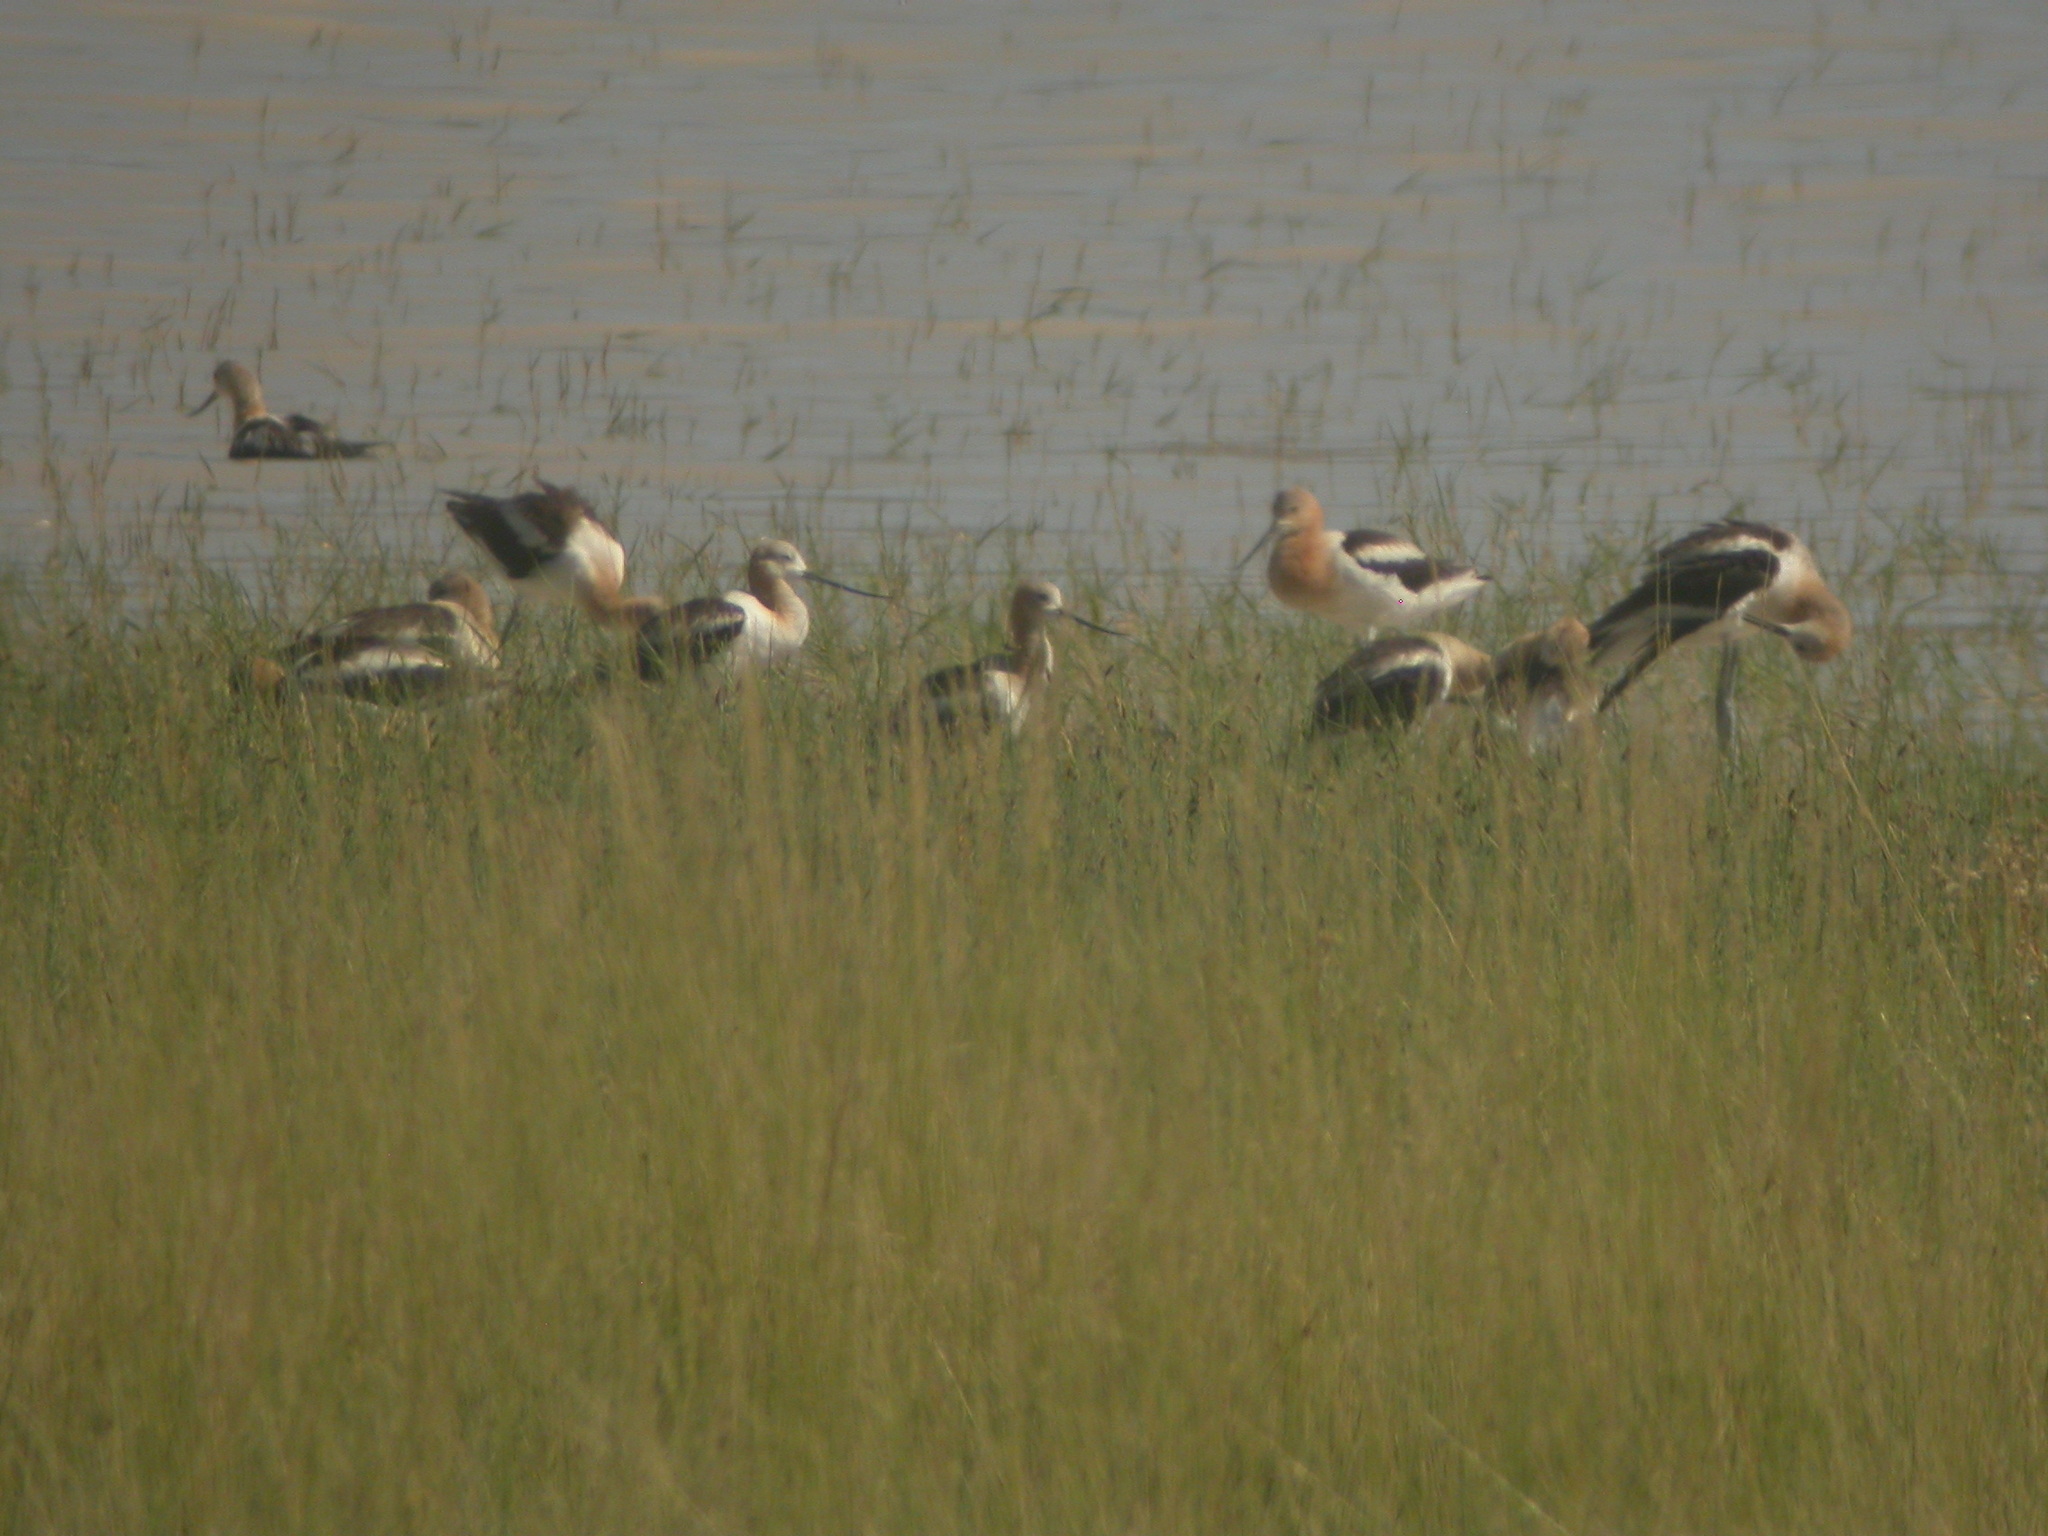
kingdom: Animalia
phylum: Chordata
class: Aves
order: Charadriiformes
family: Recurvirostridae
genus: Recurvirostra
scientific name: Recurvirostra americana
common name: American avocet
